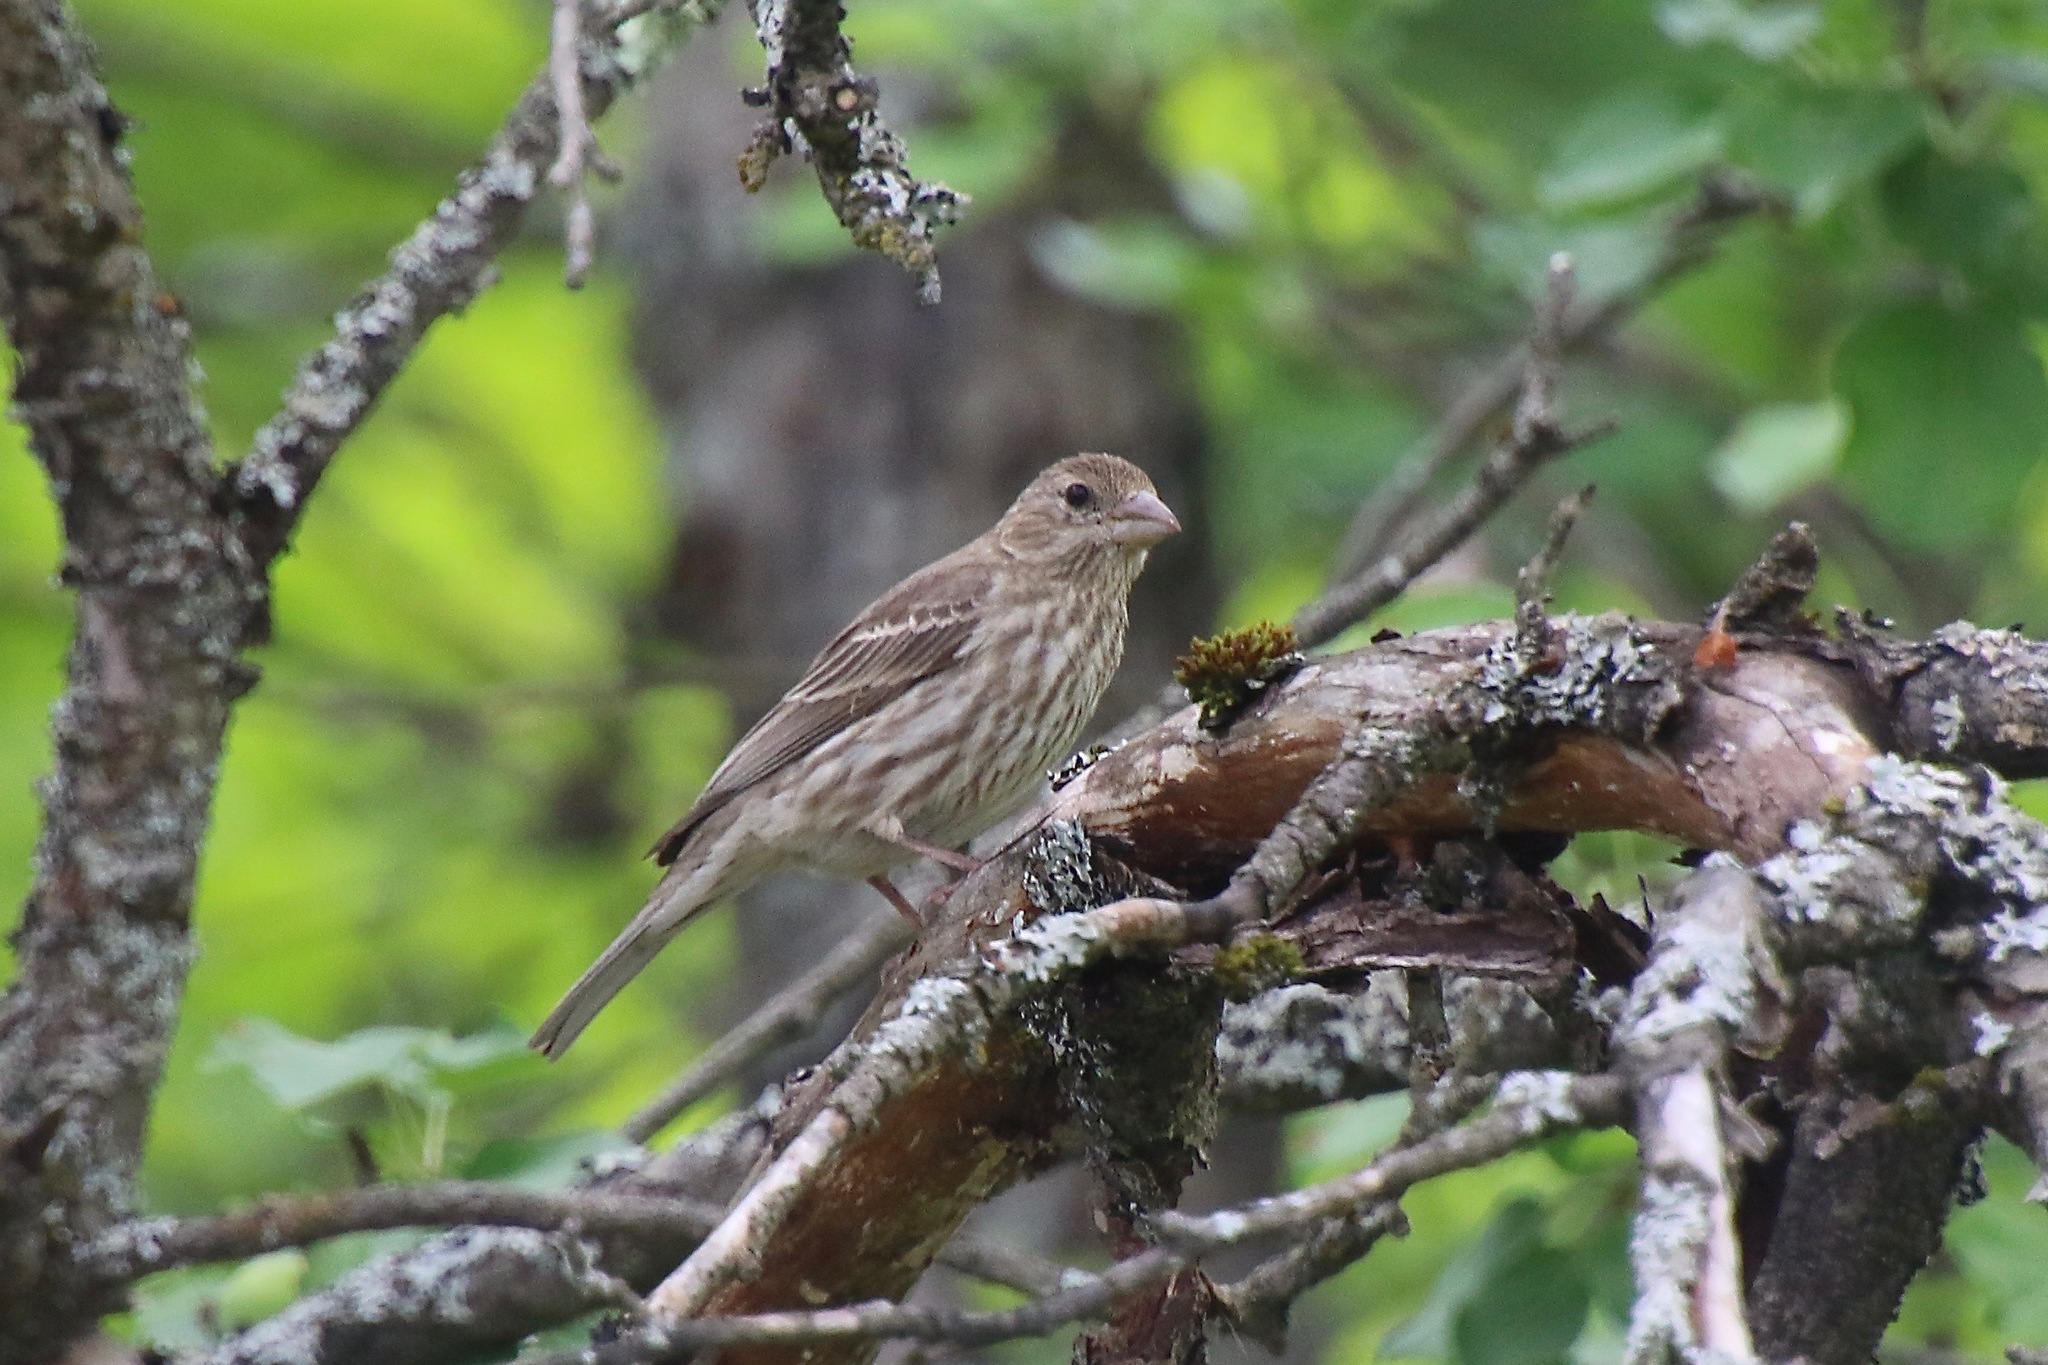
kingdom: Animalia
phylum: Chordata
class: Aves
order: Passeriformes
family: Fringillidae
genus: Haemorhous
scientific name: Haemorhous mexicanus
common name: House finch
